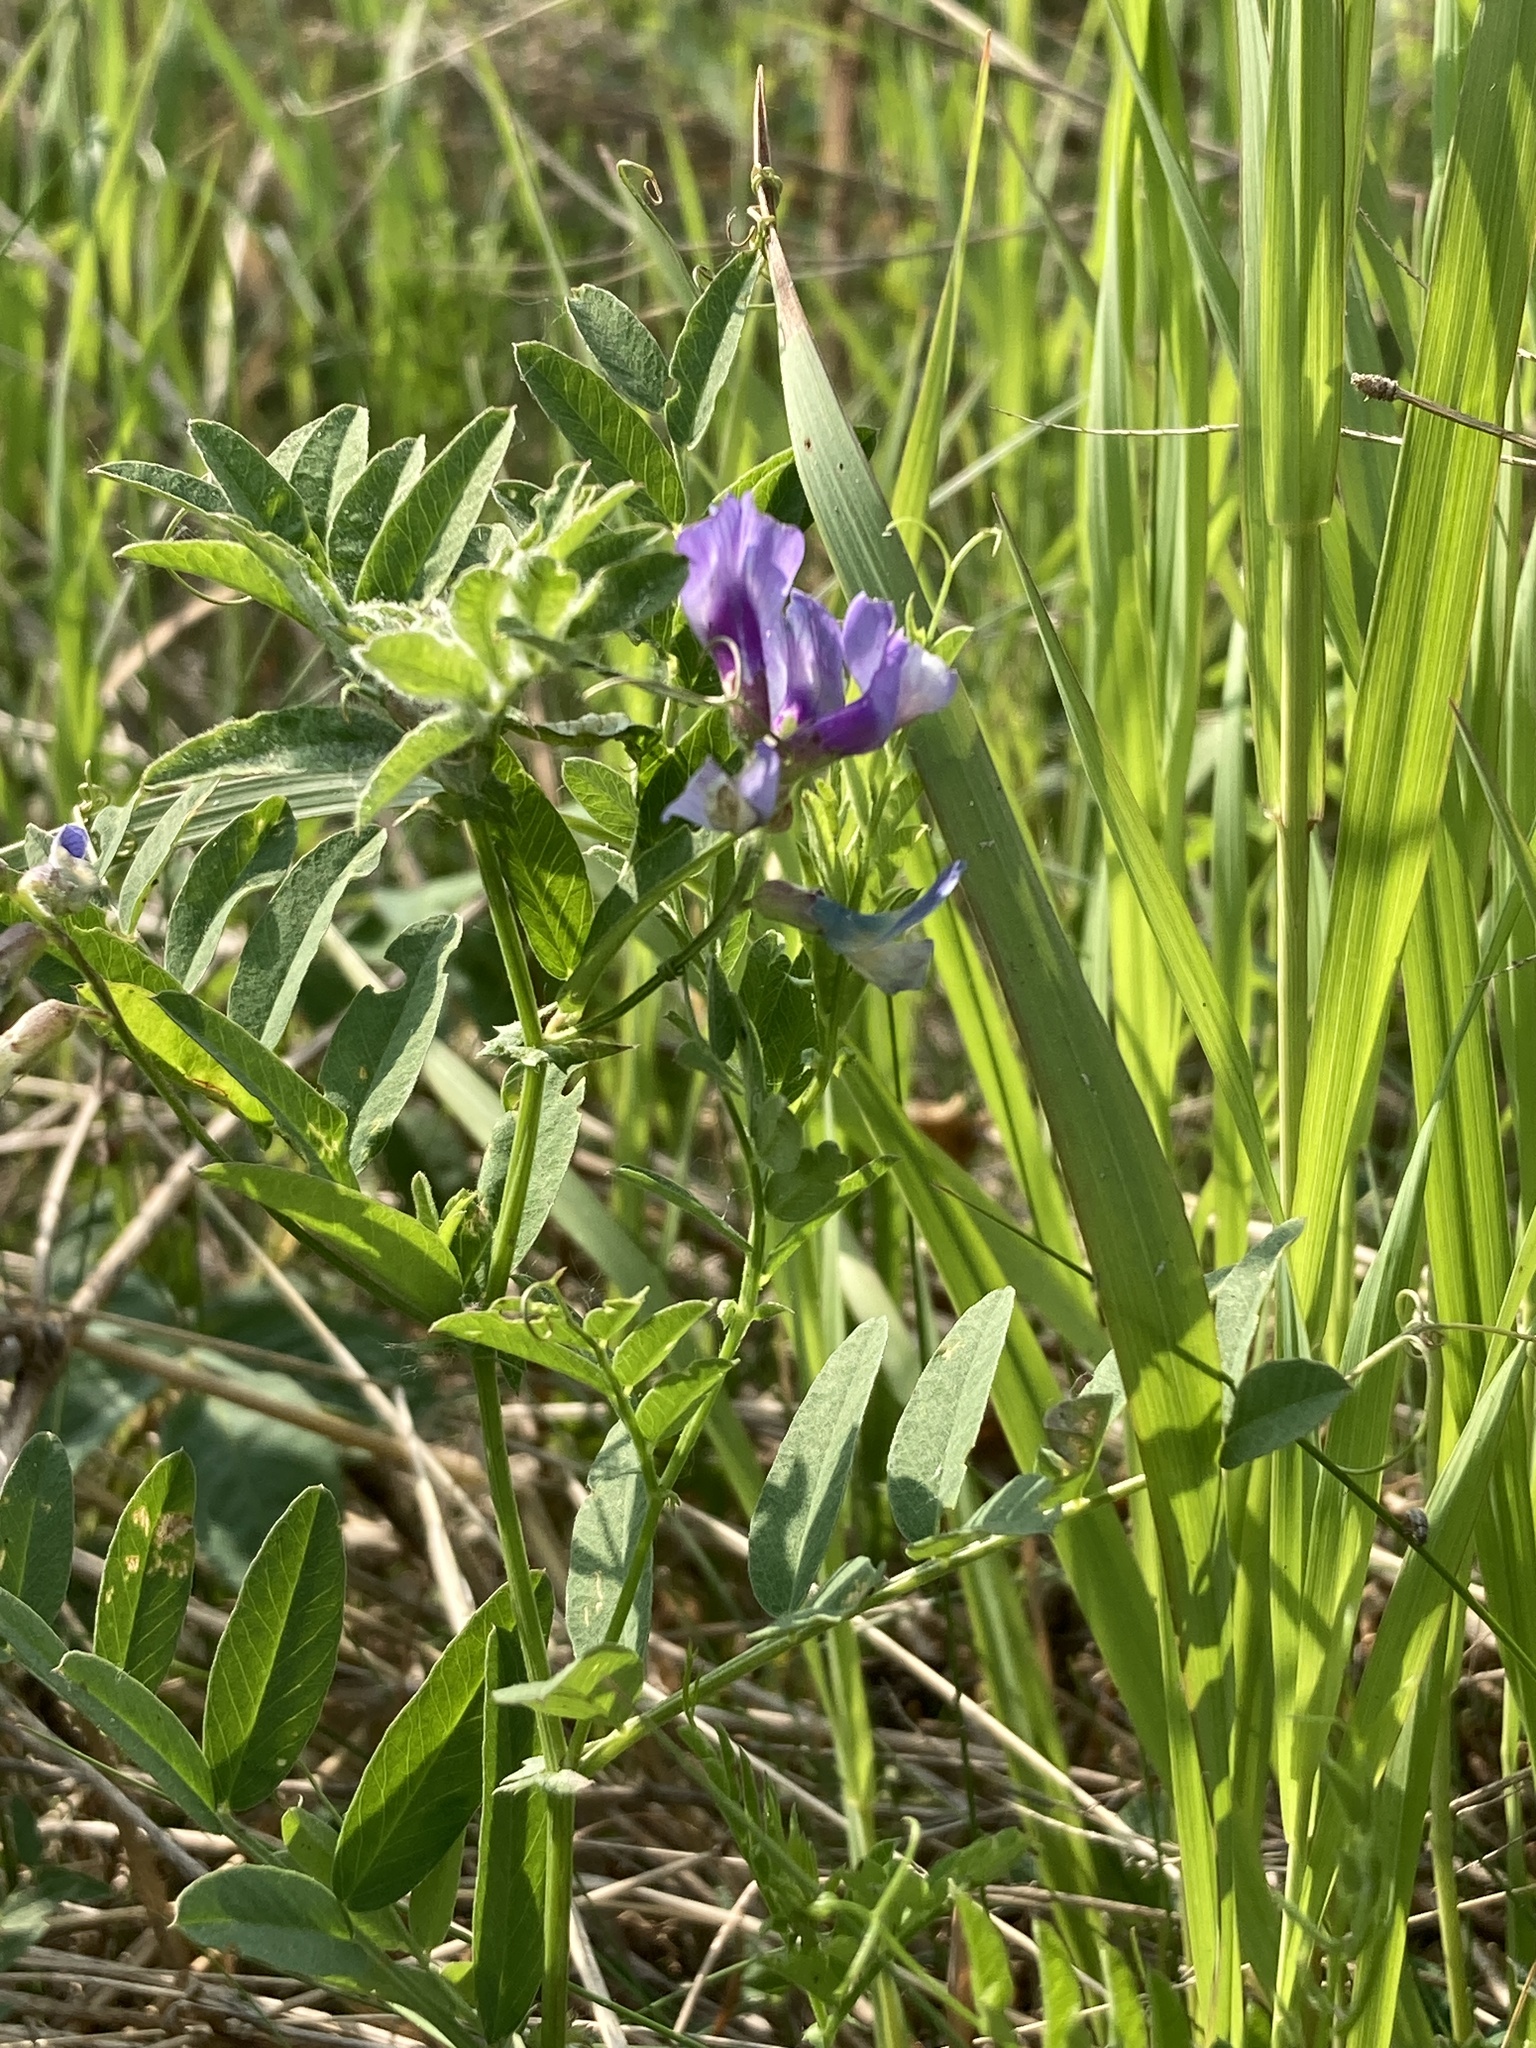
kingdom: Plantae
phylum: Tracheophyta
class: Magnoliopsida
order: Fabales
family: Fabaceae
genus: Vicia
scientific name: Vicia americana
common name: American vetch
